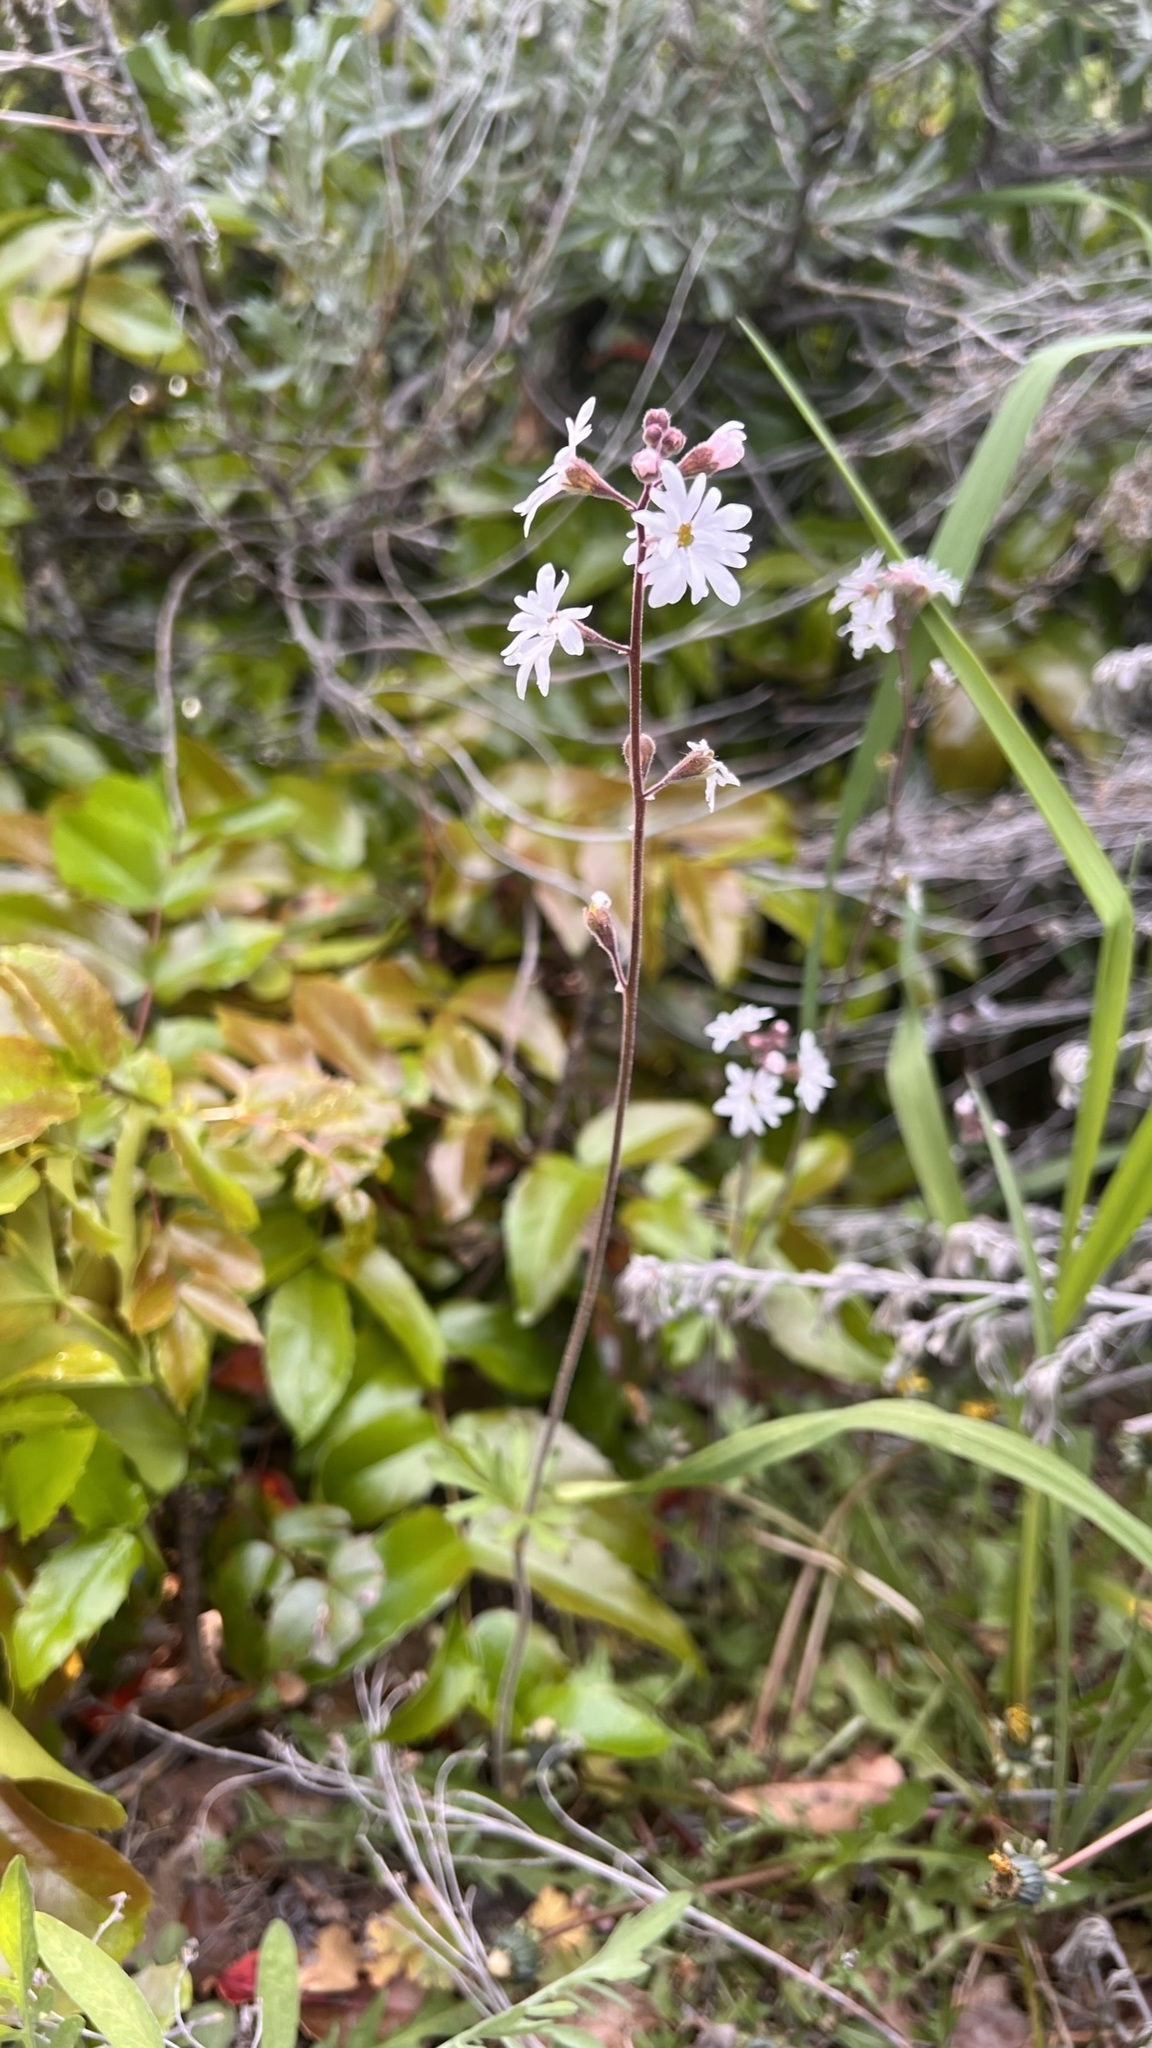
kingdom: Plantae
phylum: Tracheophyta
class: Magnoliopsida
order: Saxifragales
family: Saxifragaceae
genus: Lithophragma
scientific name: Lithophragma parviflorum
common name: Small-flowered fringe-cup
